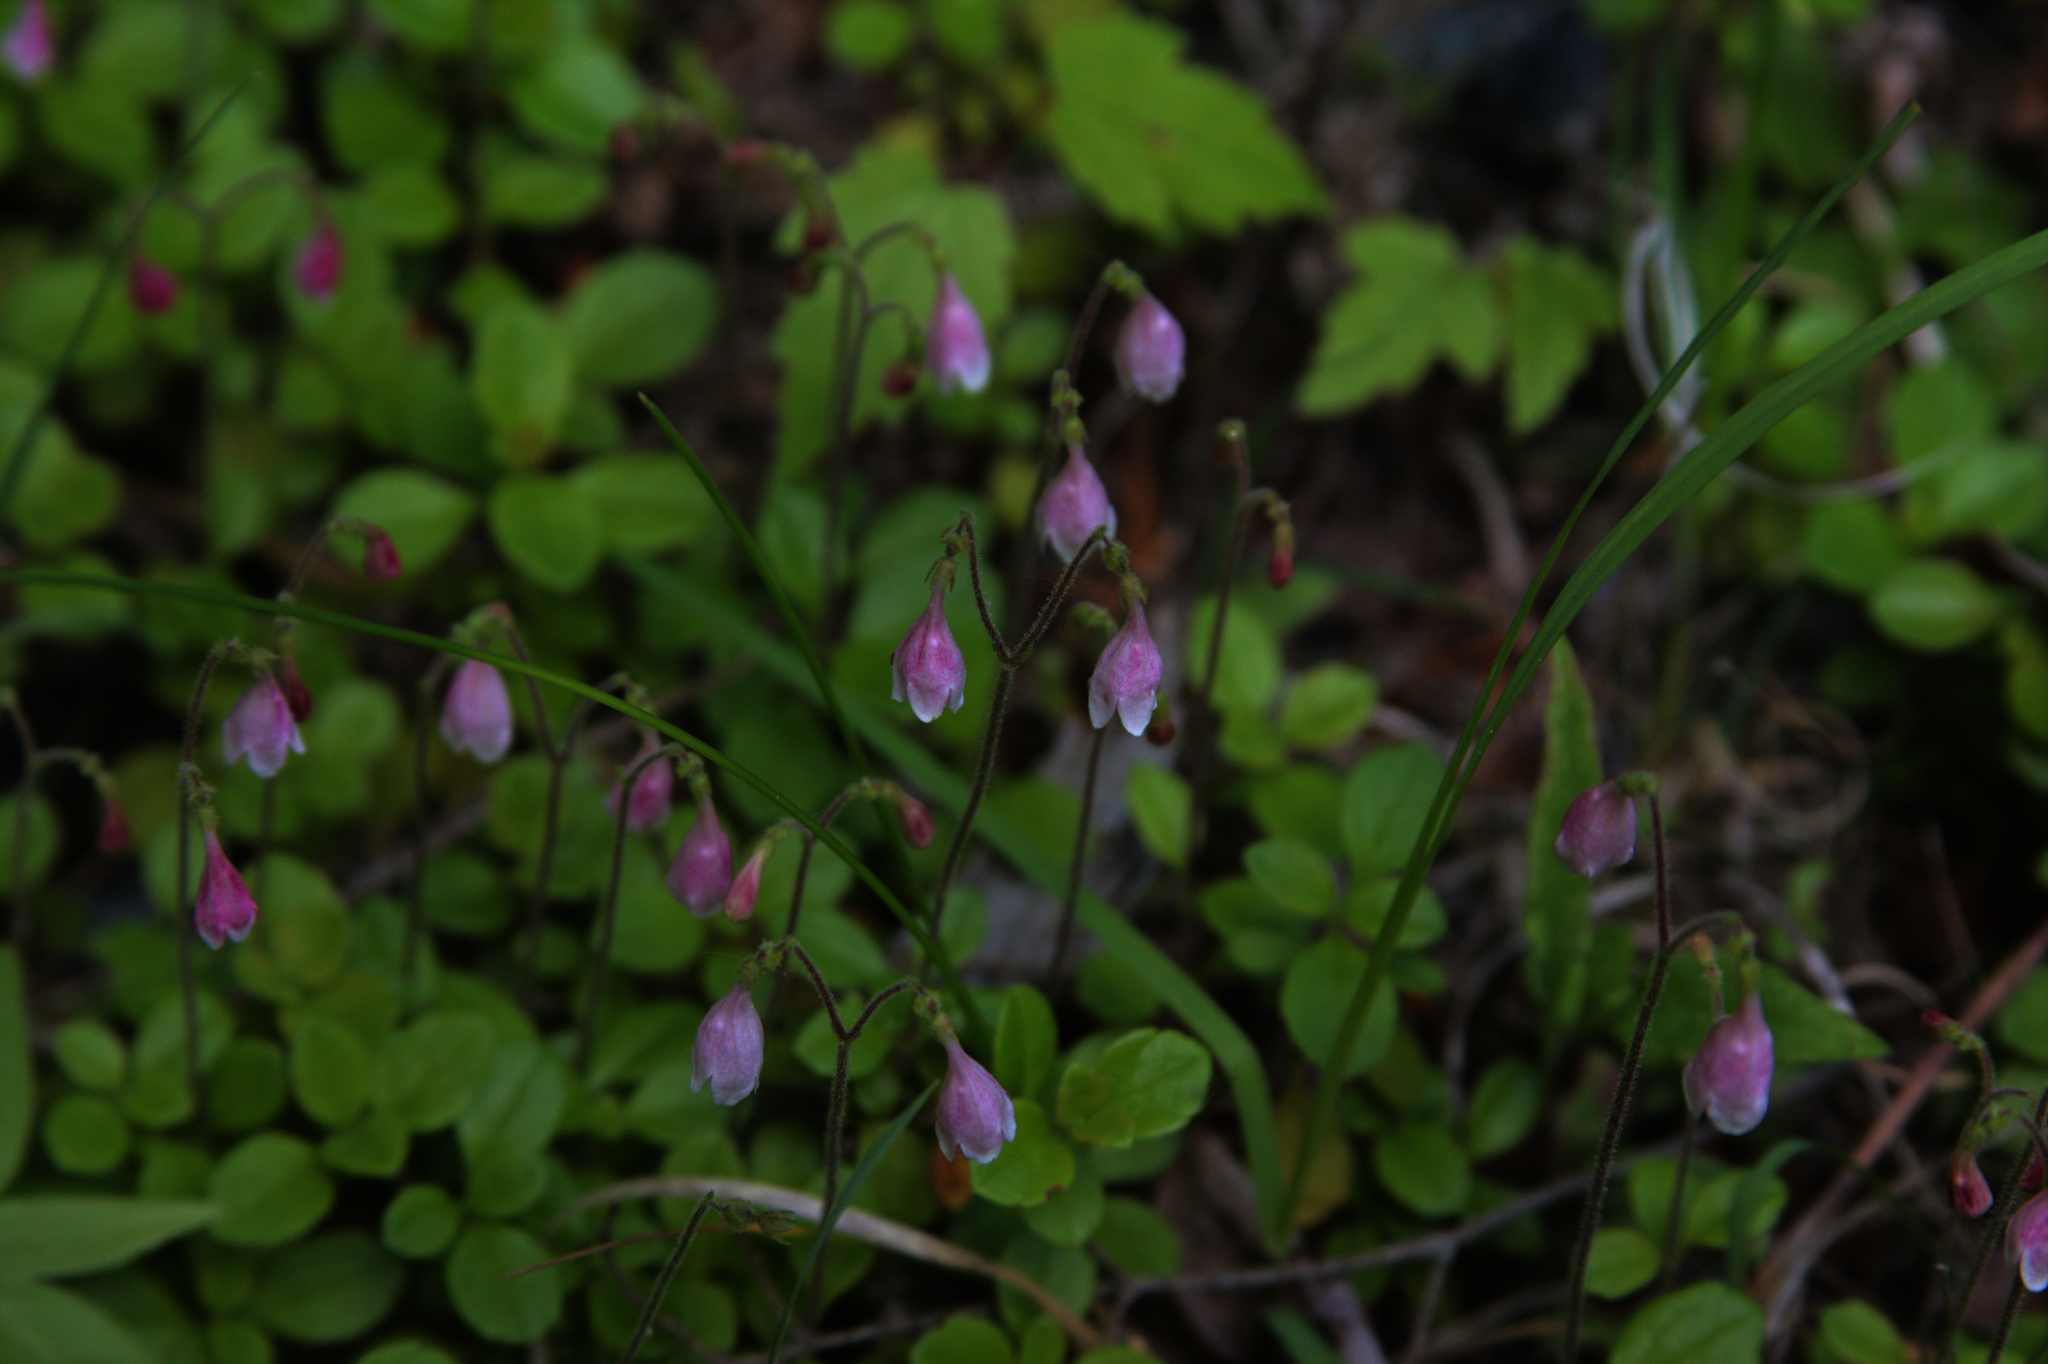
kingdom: Plantae
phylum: Tracheophyta
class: Magnoliopsida
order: Dipsacales
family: Caprifoliaceae
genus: Linnaea
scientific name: Linnaea borealis
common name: Twinflower
